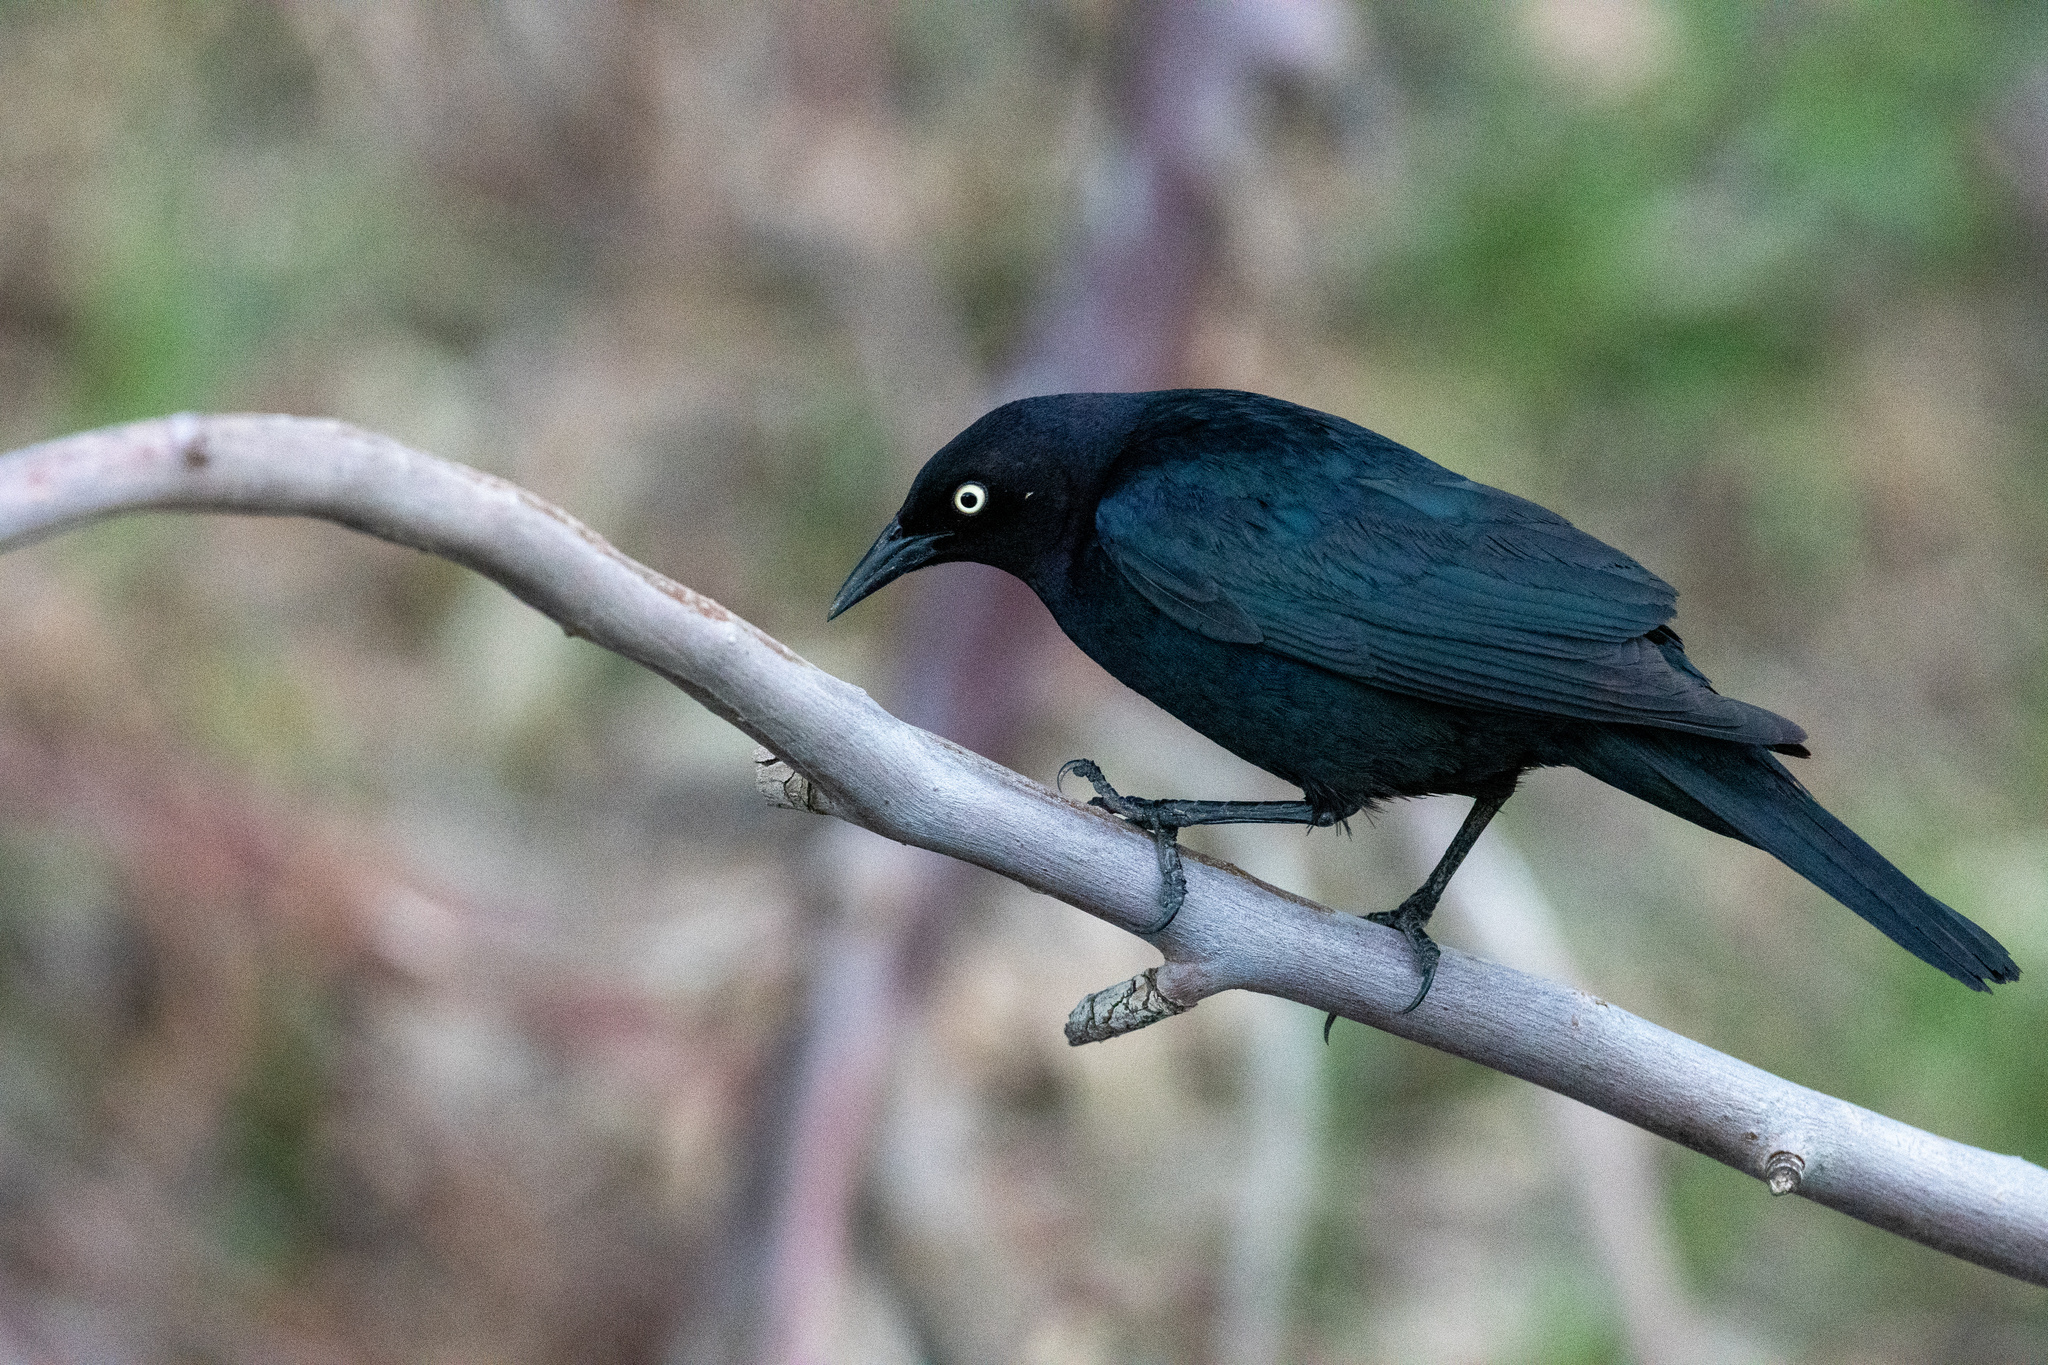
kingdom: Animalia
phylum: Chordata
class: Aves
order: Passeriformes
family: Icteridae
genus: Euphagus
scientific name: Euphagus cyanocephalus
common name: Brewer's blackbird
